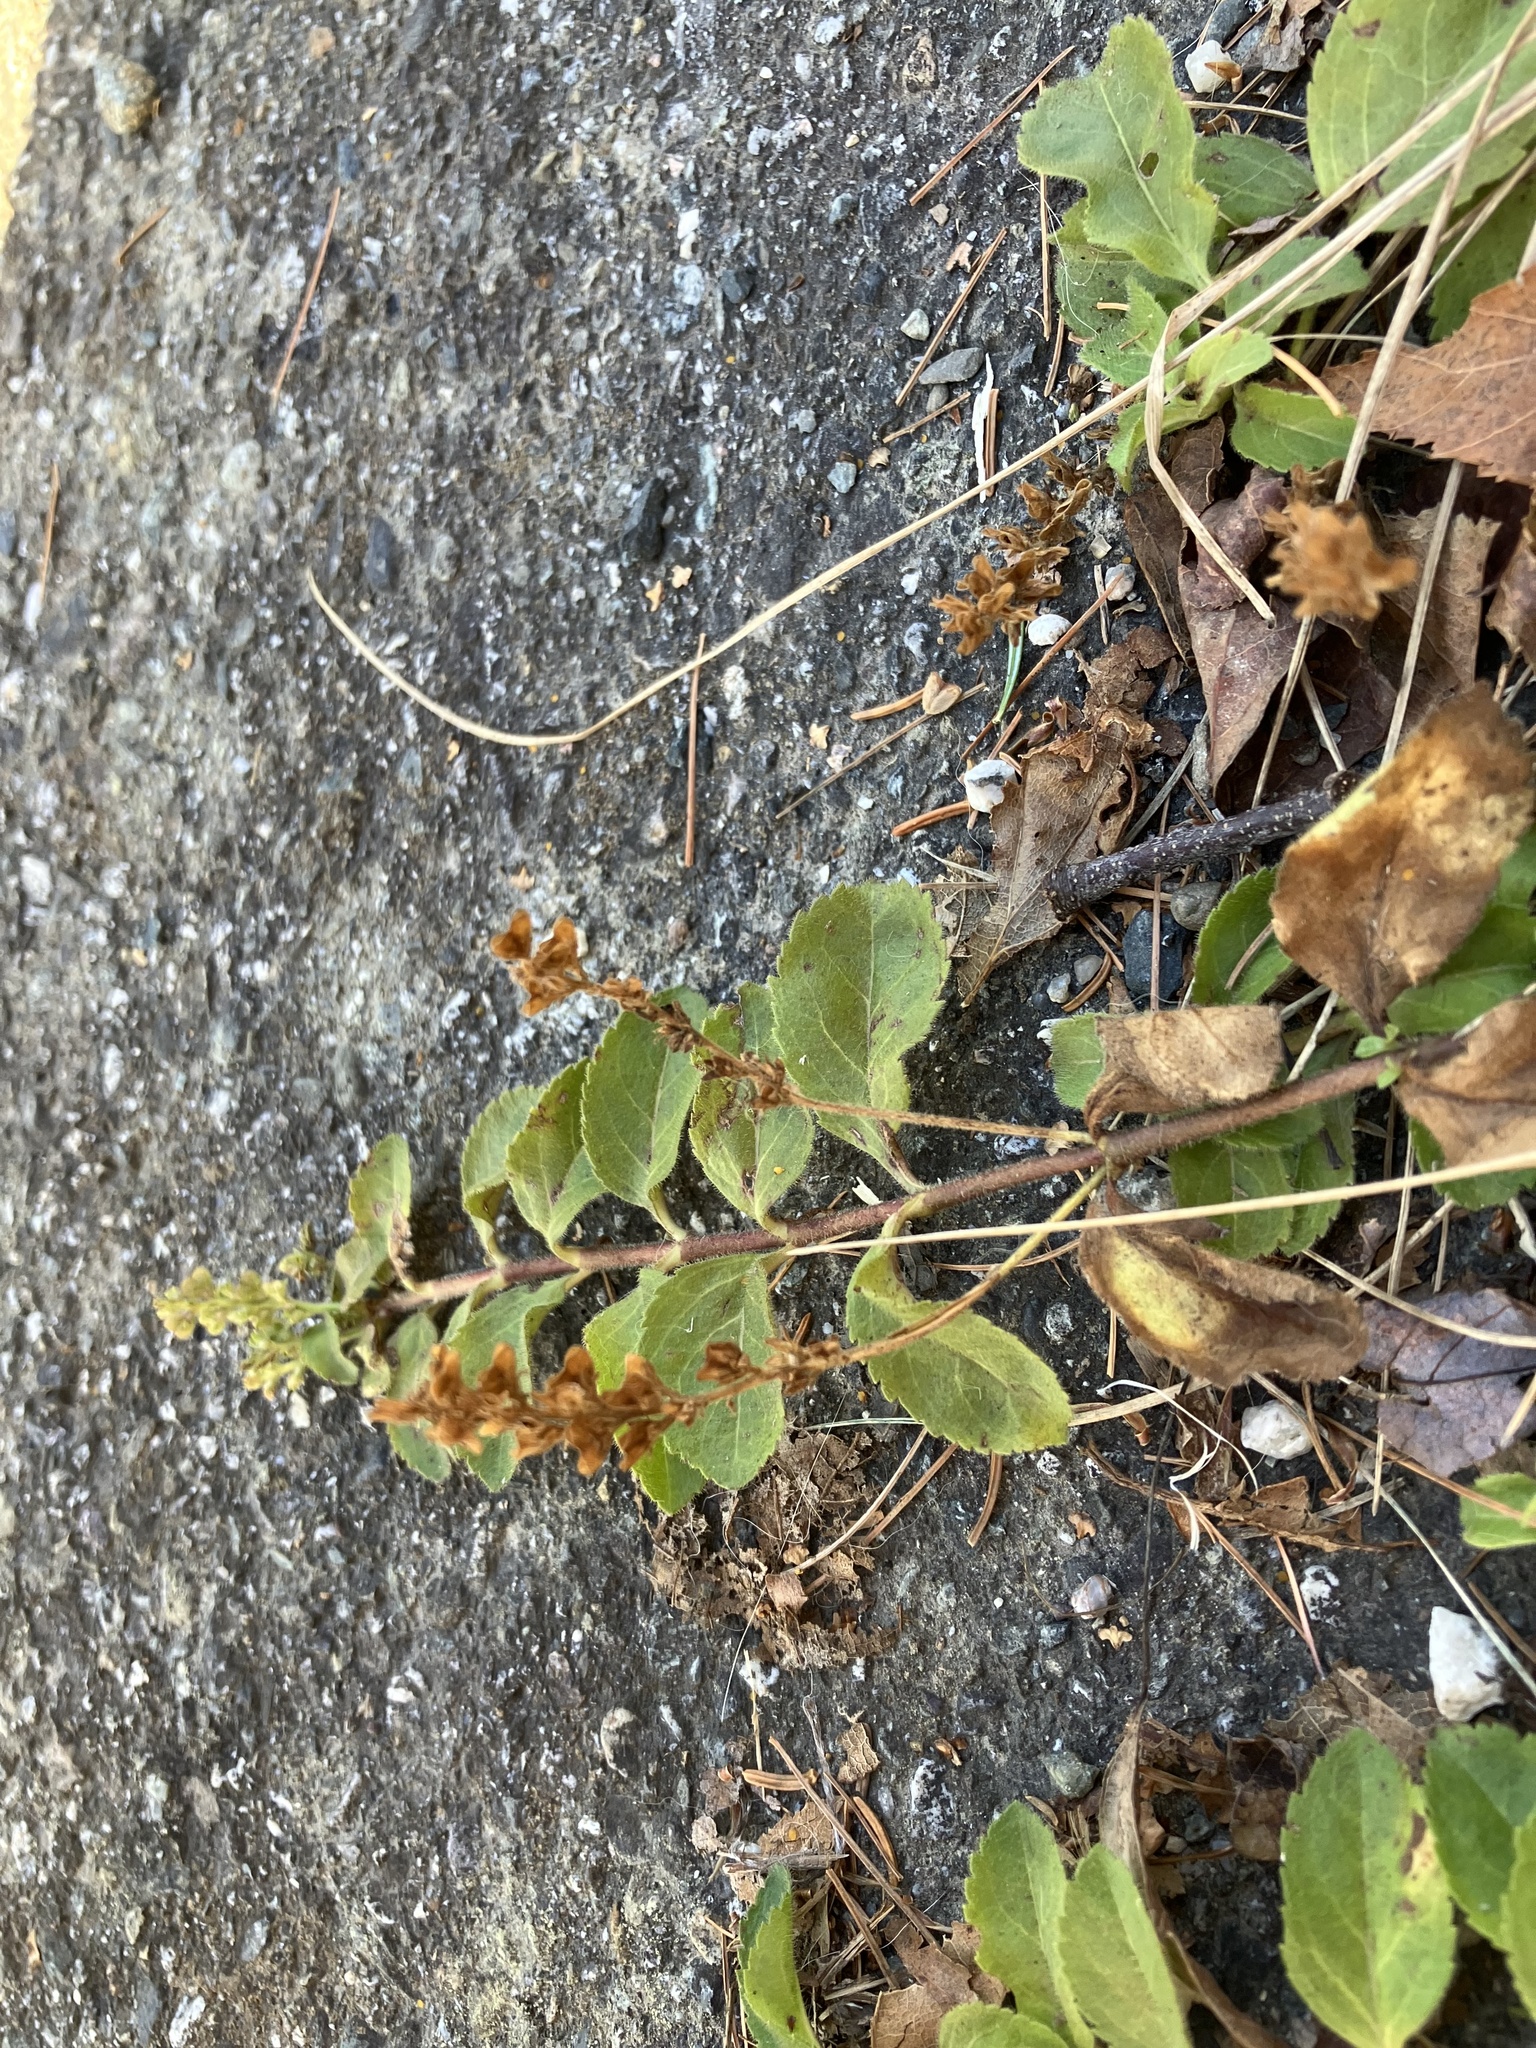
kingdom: Plantae
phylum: Tracheophyta
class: Magnoliopsida
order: Lamiales
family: Plantaginaceae
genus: Veronica
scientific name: Veronica officinalis
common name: Common speedwell
